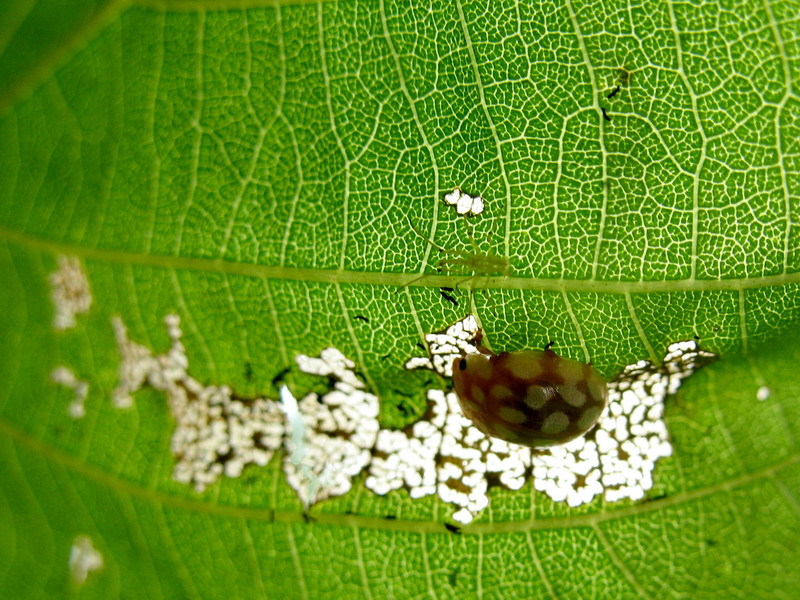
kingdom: Animalia
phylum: Arthropoda
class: Insecta
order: Coleoptera
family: Coccinellidae
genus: Sospita
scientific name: Sospita vigintiguttata
